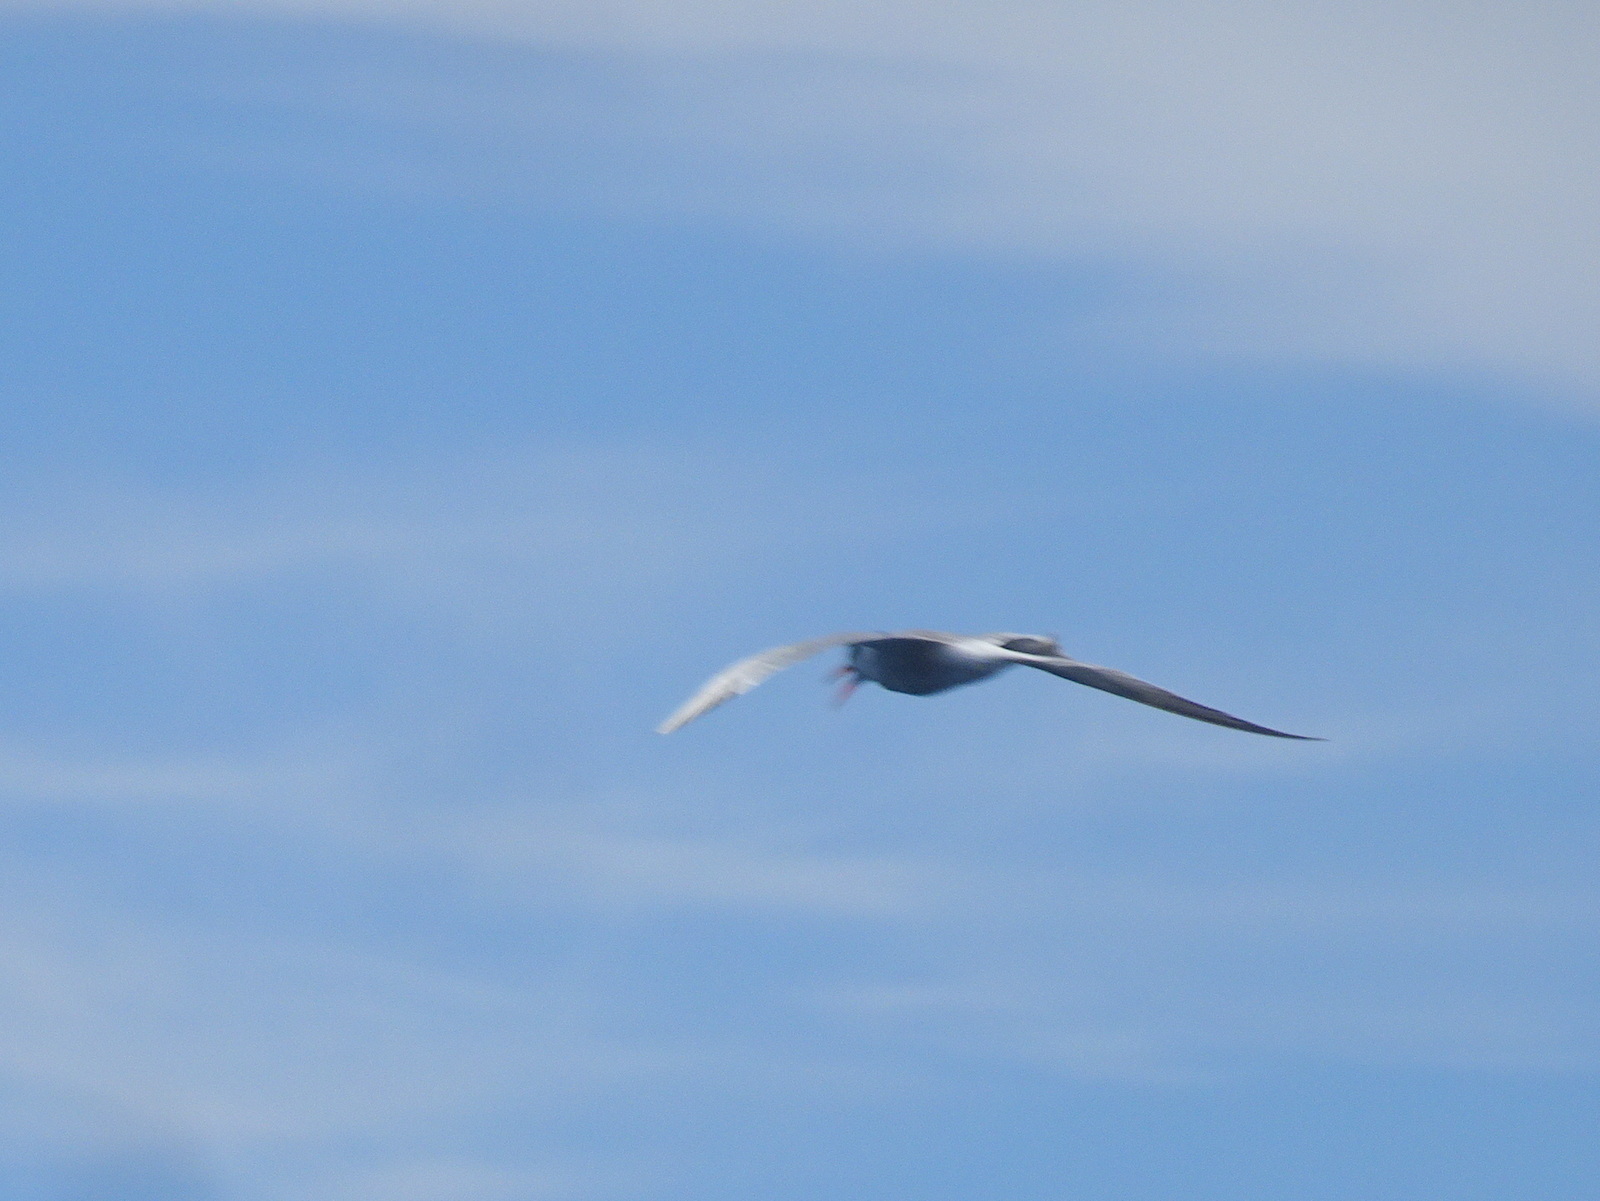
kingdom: Animalia
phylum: Chordata
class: Aves
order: Charadriiformes
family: Laridae
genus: Sterna
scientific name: Sterna hirundo
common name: Common tern
